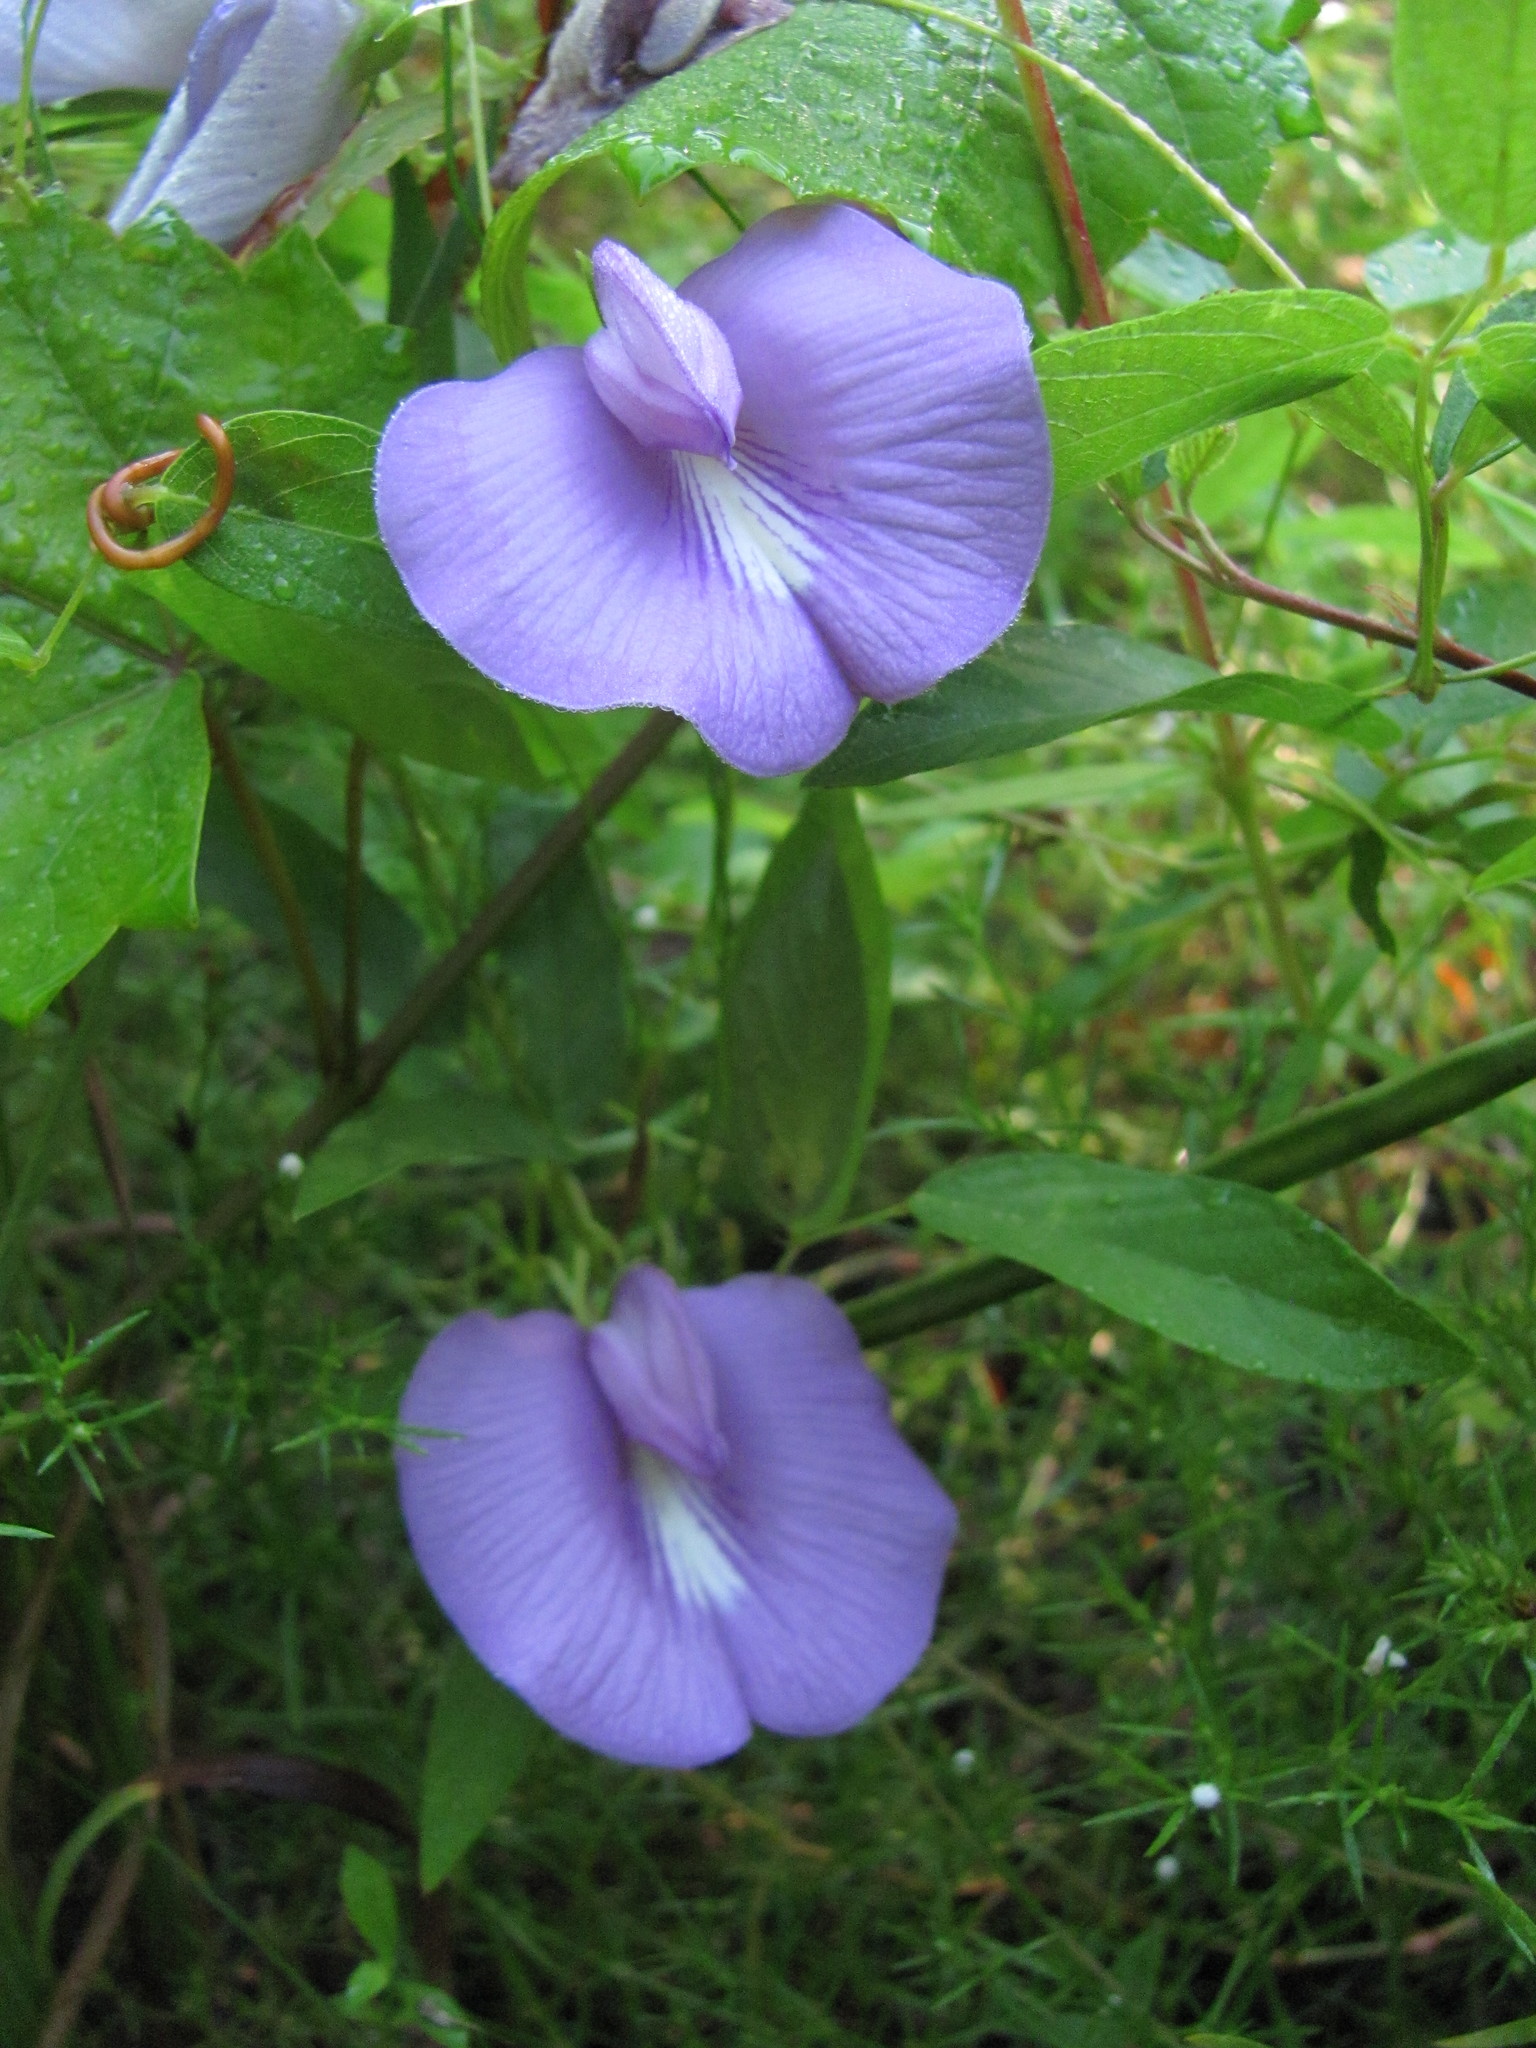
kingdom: Plantae
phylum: Tracheophyta
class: Magnoliopsida
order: Fabales
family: Fabaceae
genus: Centrosema
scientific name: Centrosema virginianum
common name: Butterfly-pea
